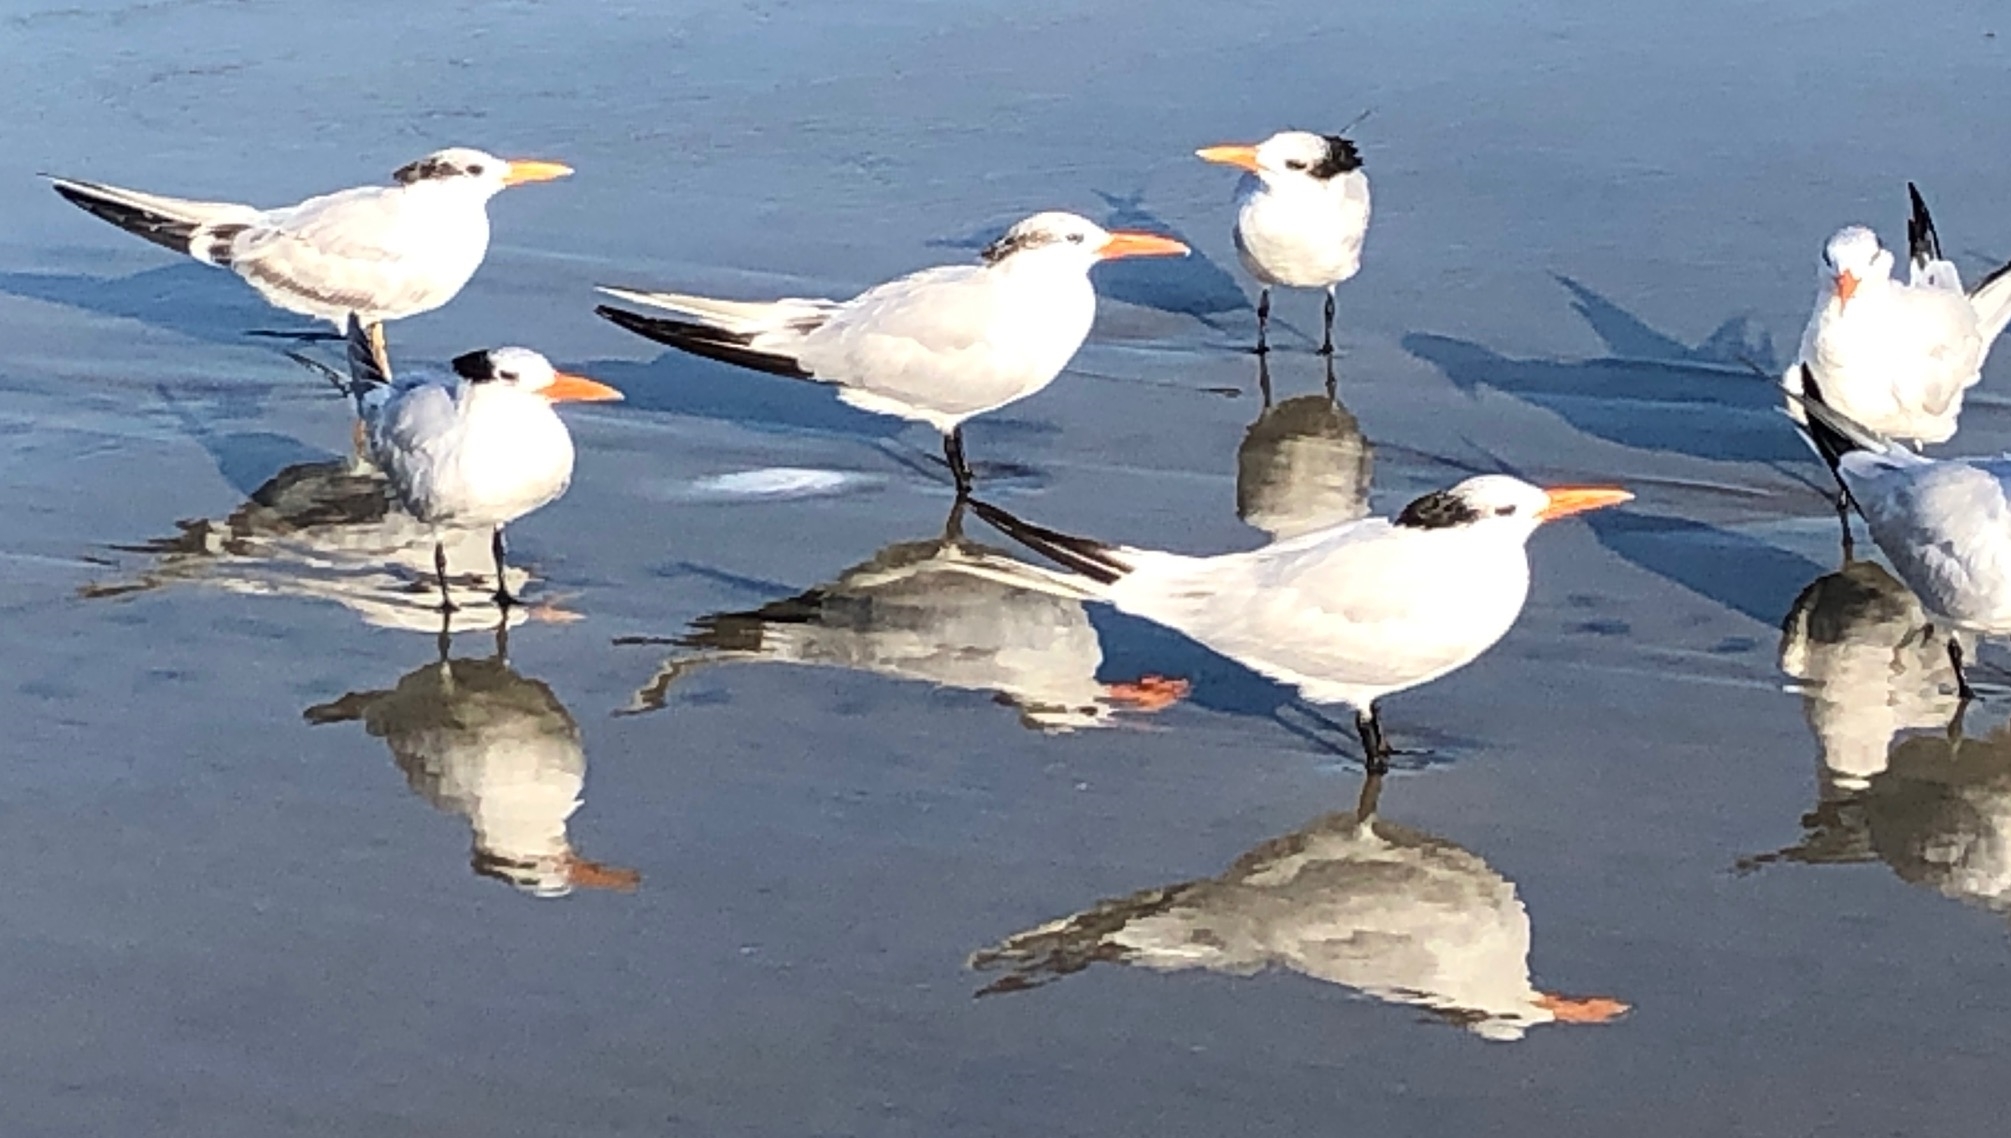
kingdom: Animalia
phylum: Chordata
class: Aves
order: Charadriiformes
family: Laridae
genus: Thalasseus
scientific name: Thalasseus maximus
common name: Royal tern
